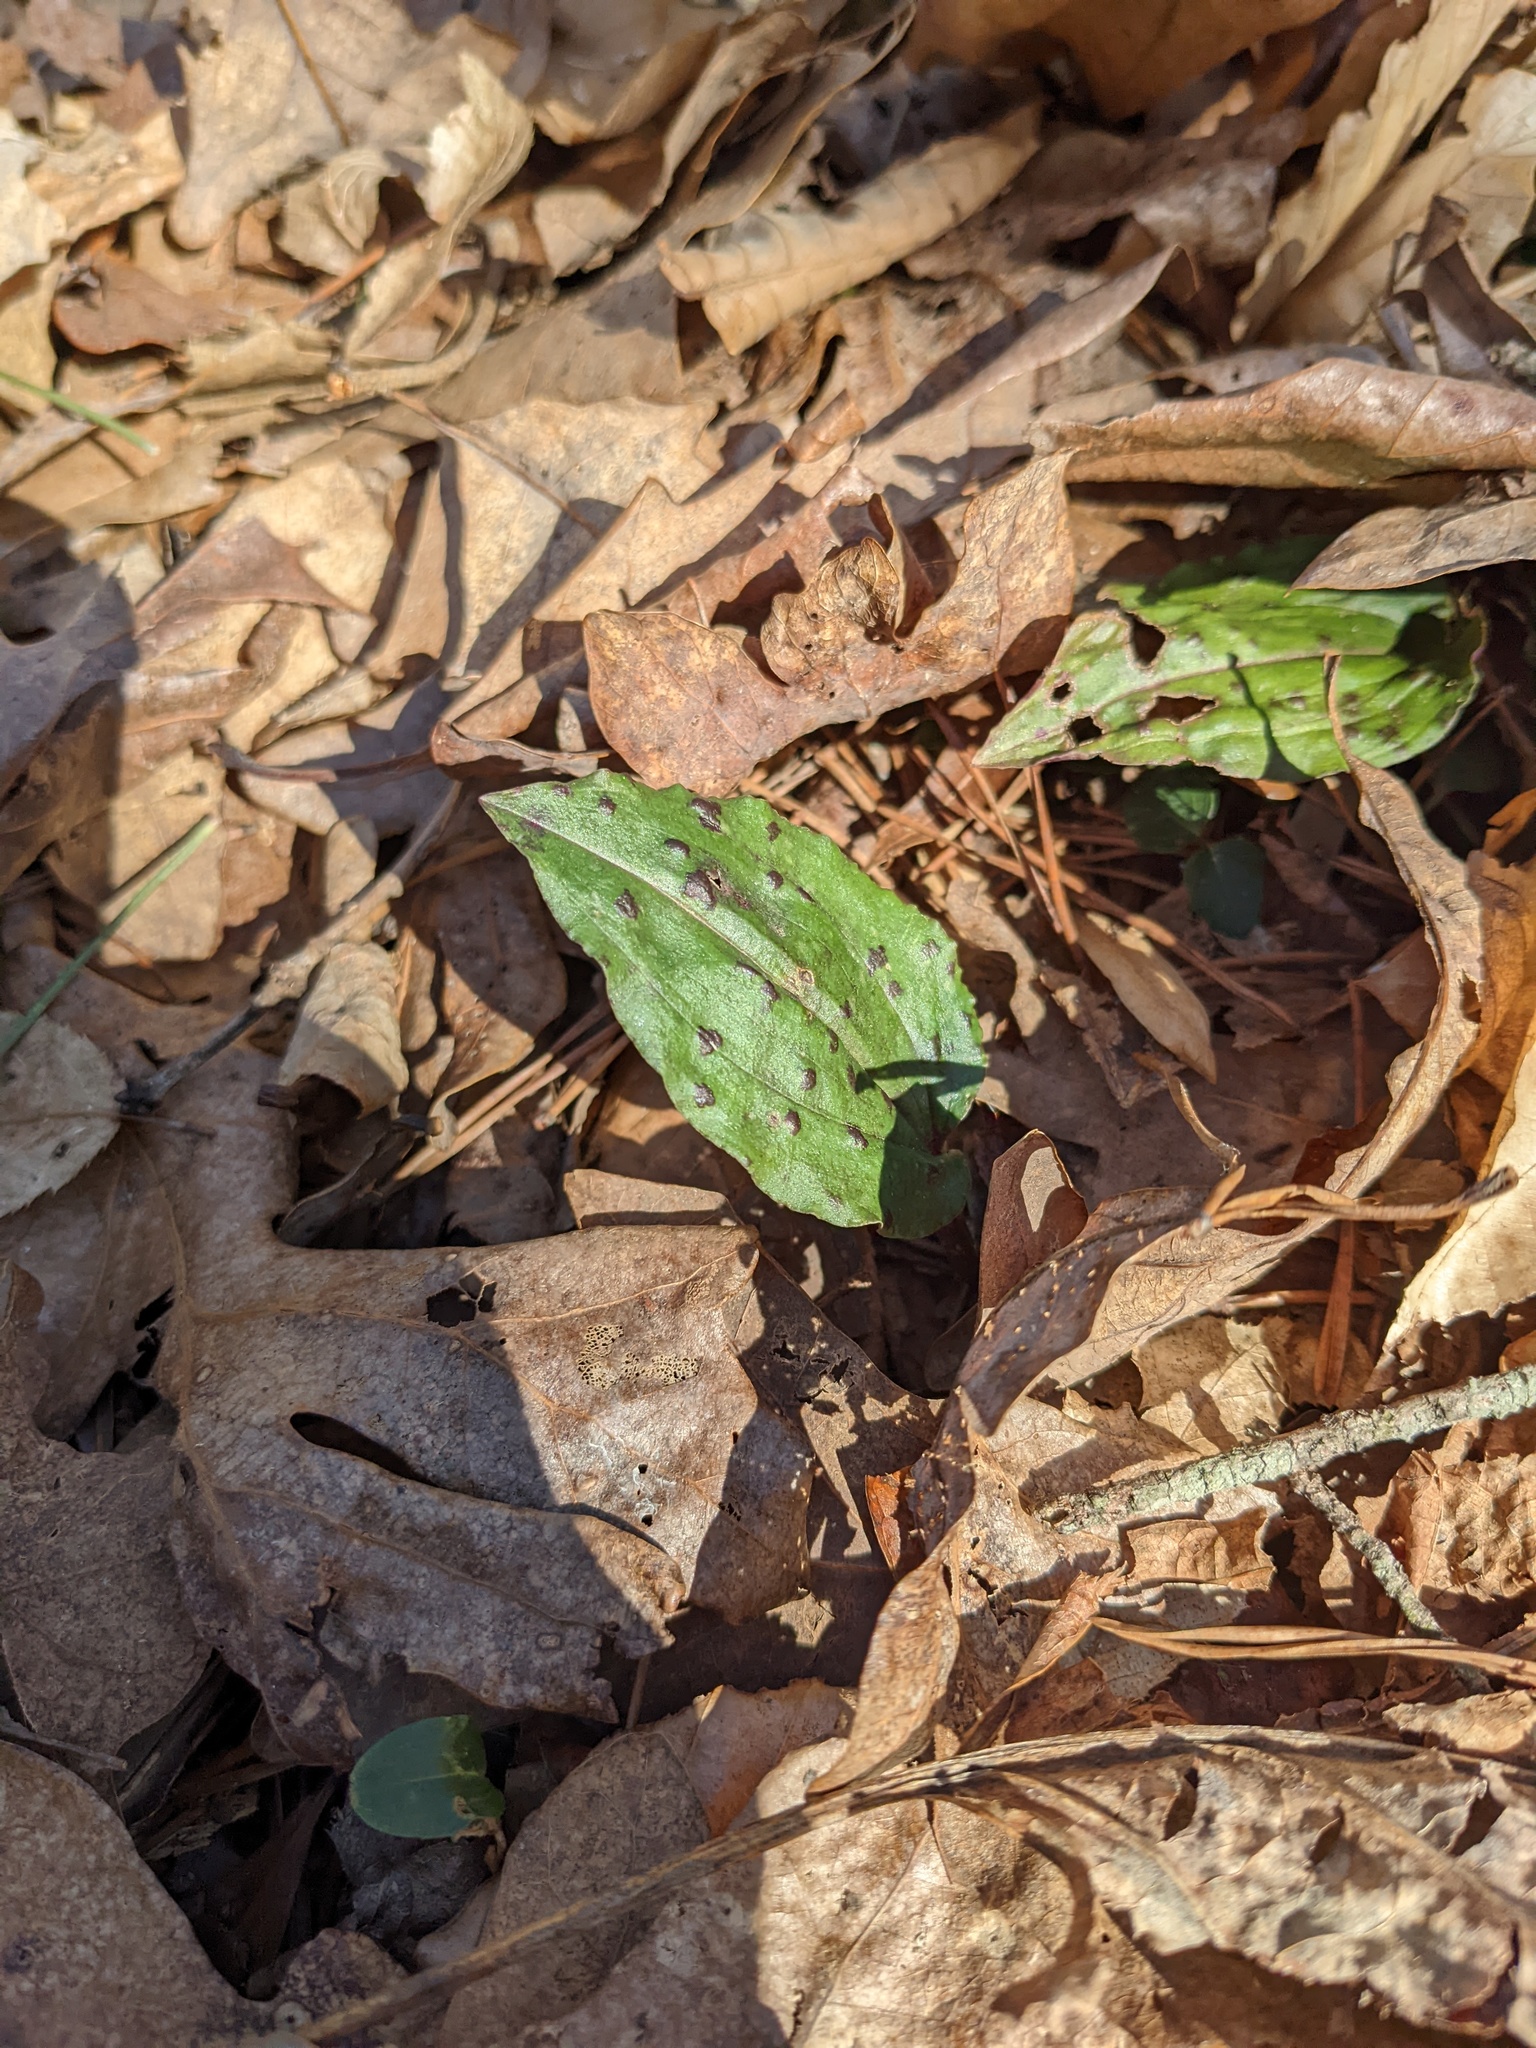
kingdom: Plantae
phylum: Tracheophyta
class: Liliopsida
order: Asparagales
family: Orchidaceae
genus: Tipularia
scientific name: Tipularia discolor
